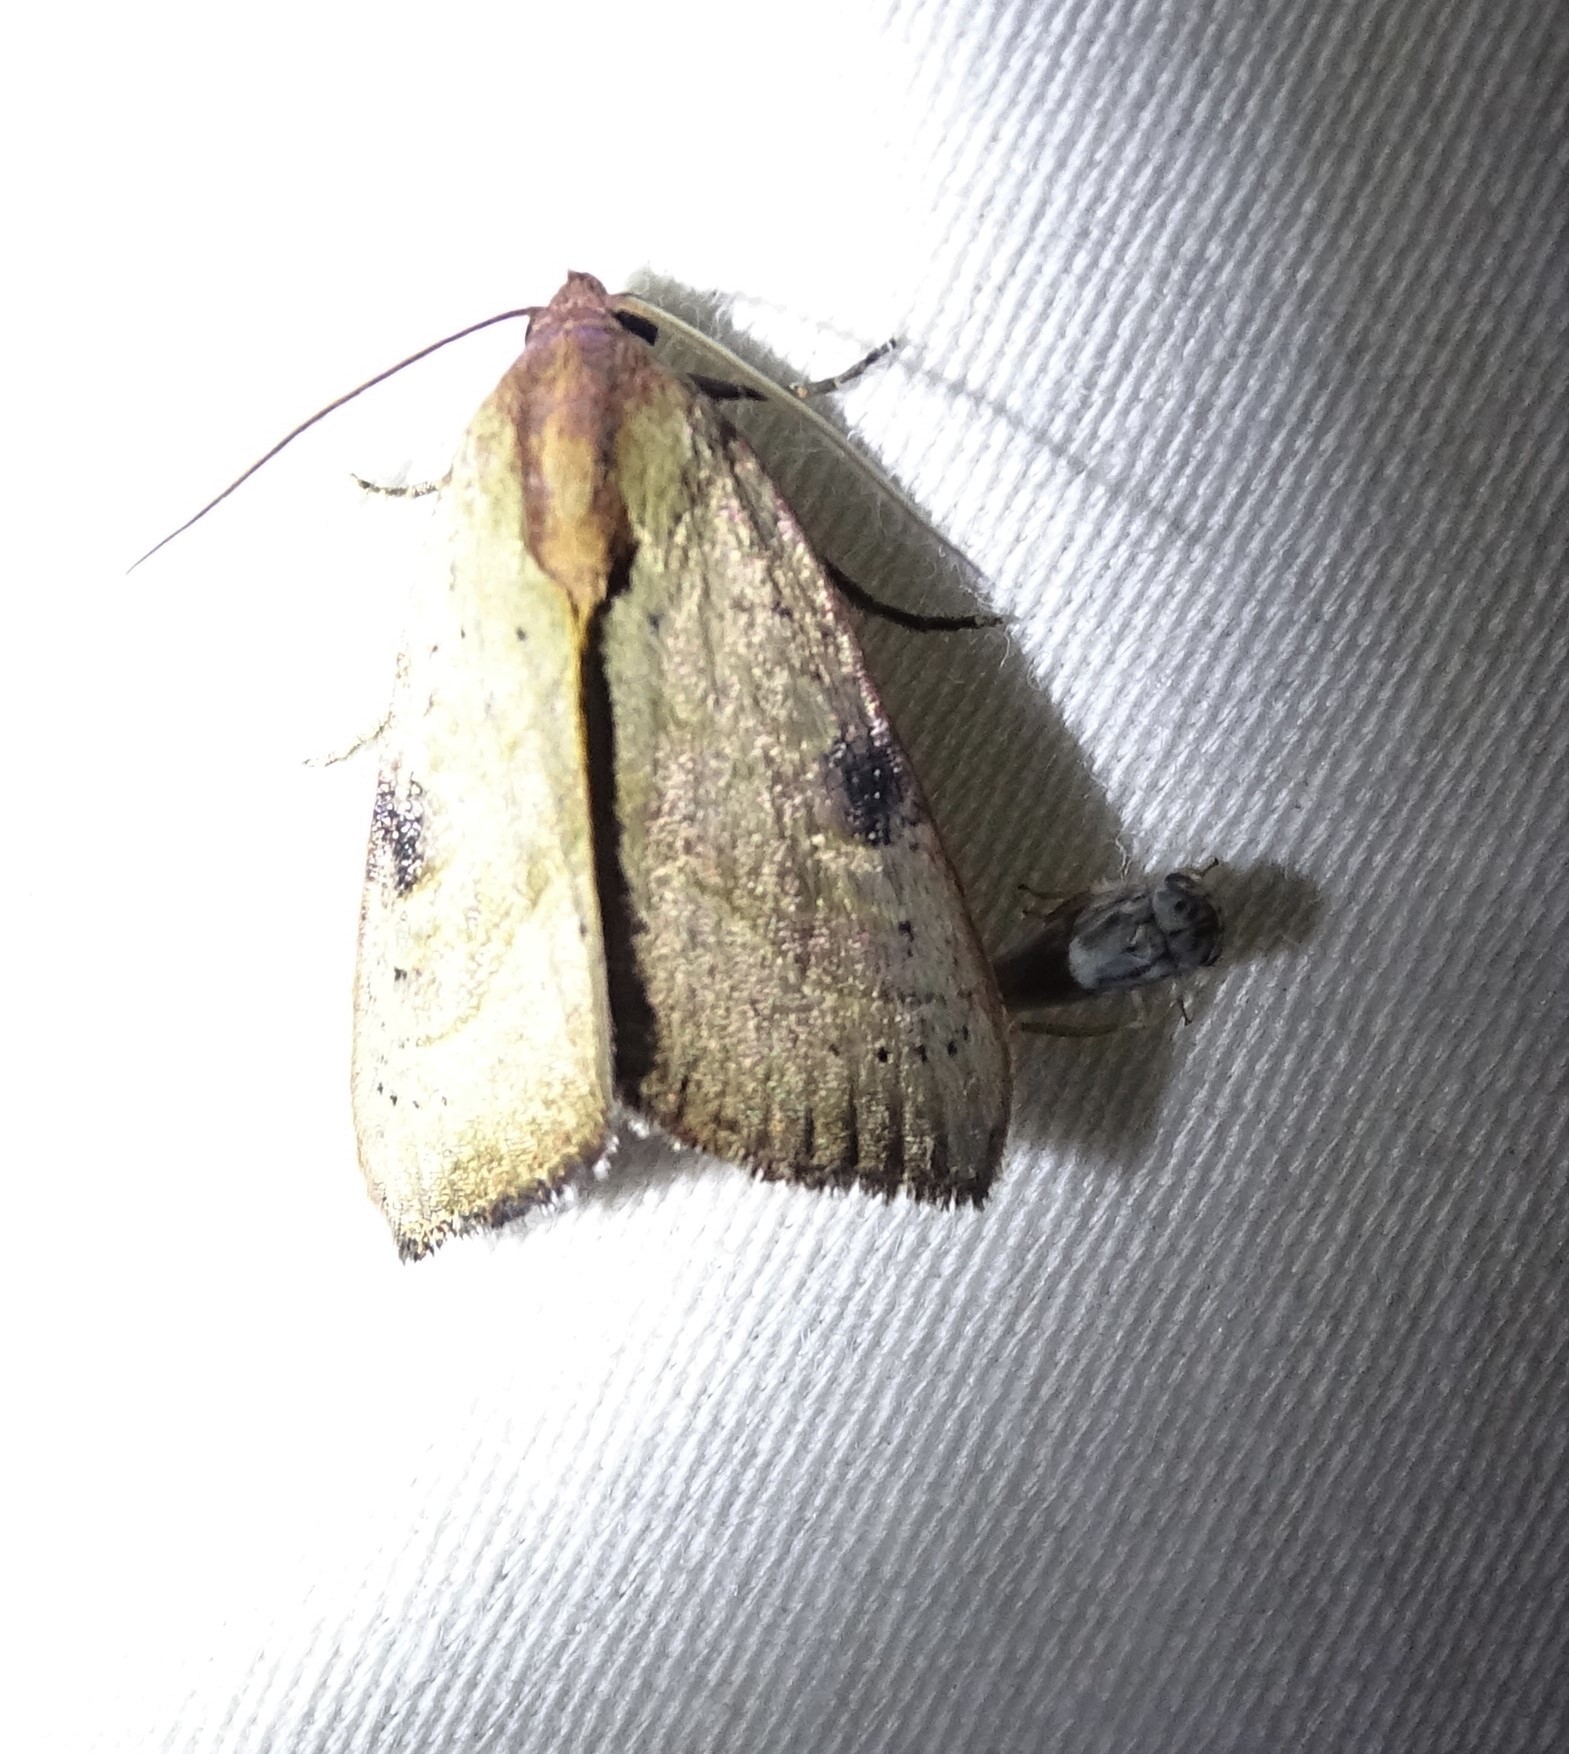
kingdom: Animalia
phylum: Arthropoda
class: Insecta
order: Lepidoptera
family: Noctuidae
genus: Galgula
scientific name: Galgula partita
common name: Wedgeling
